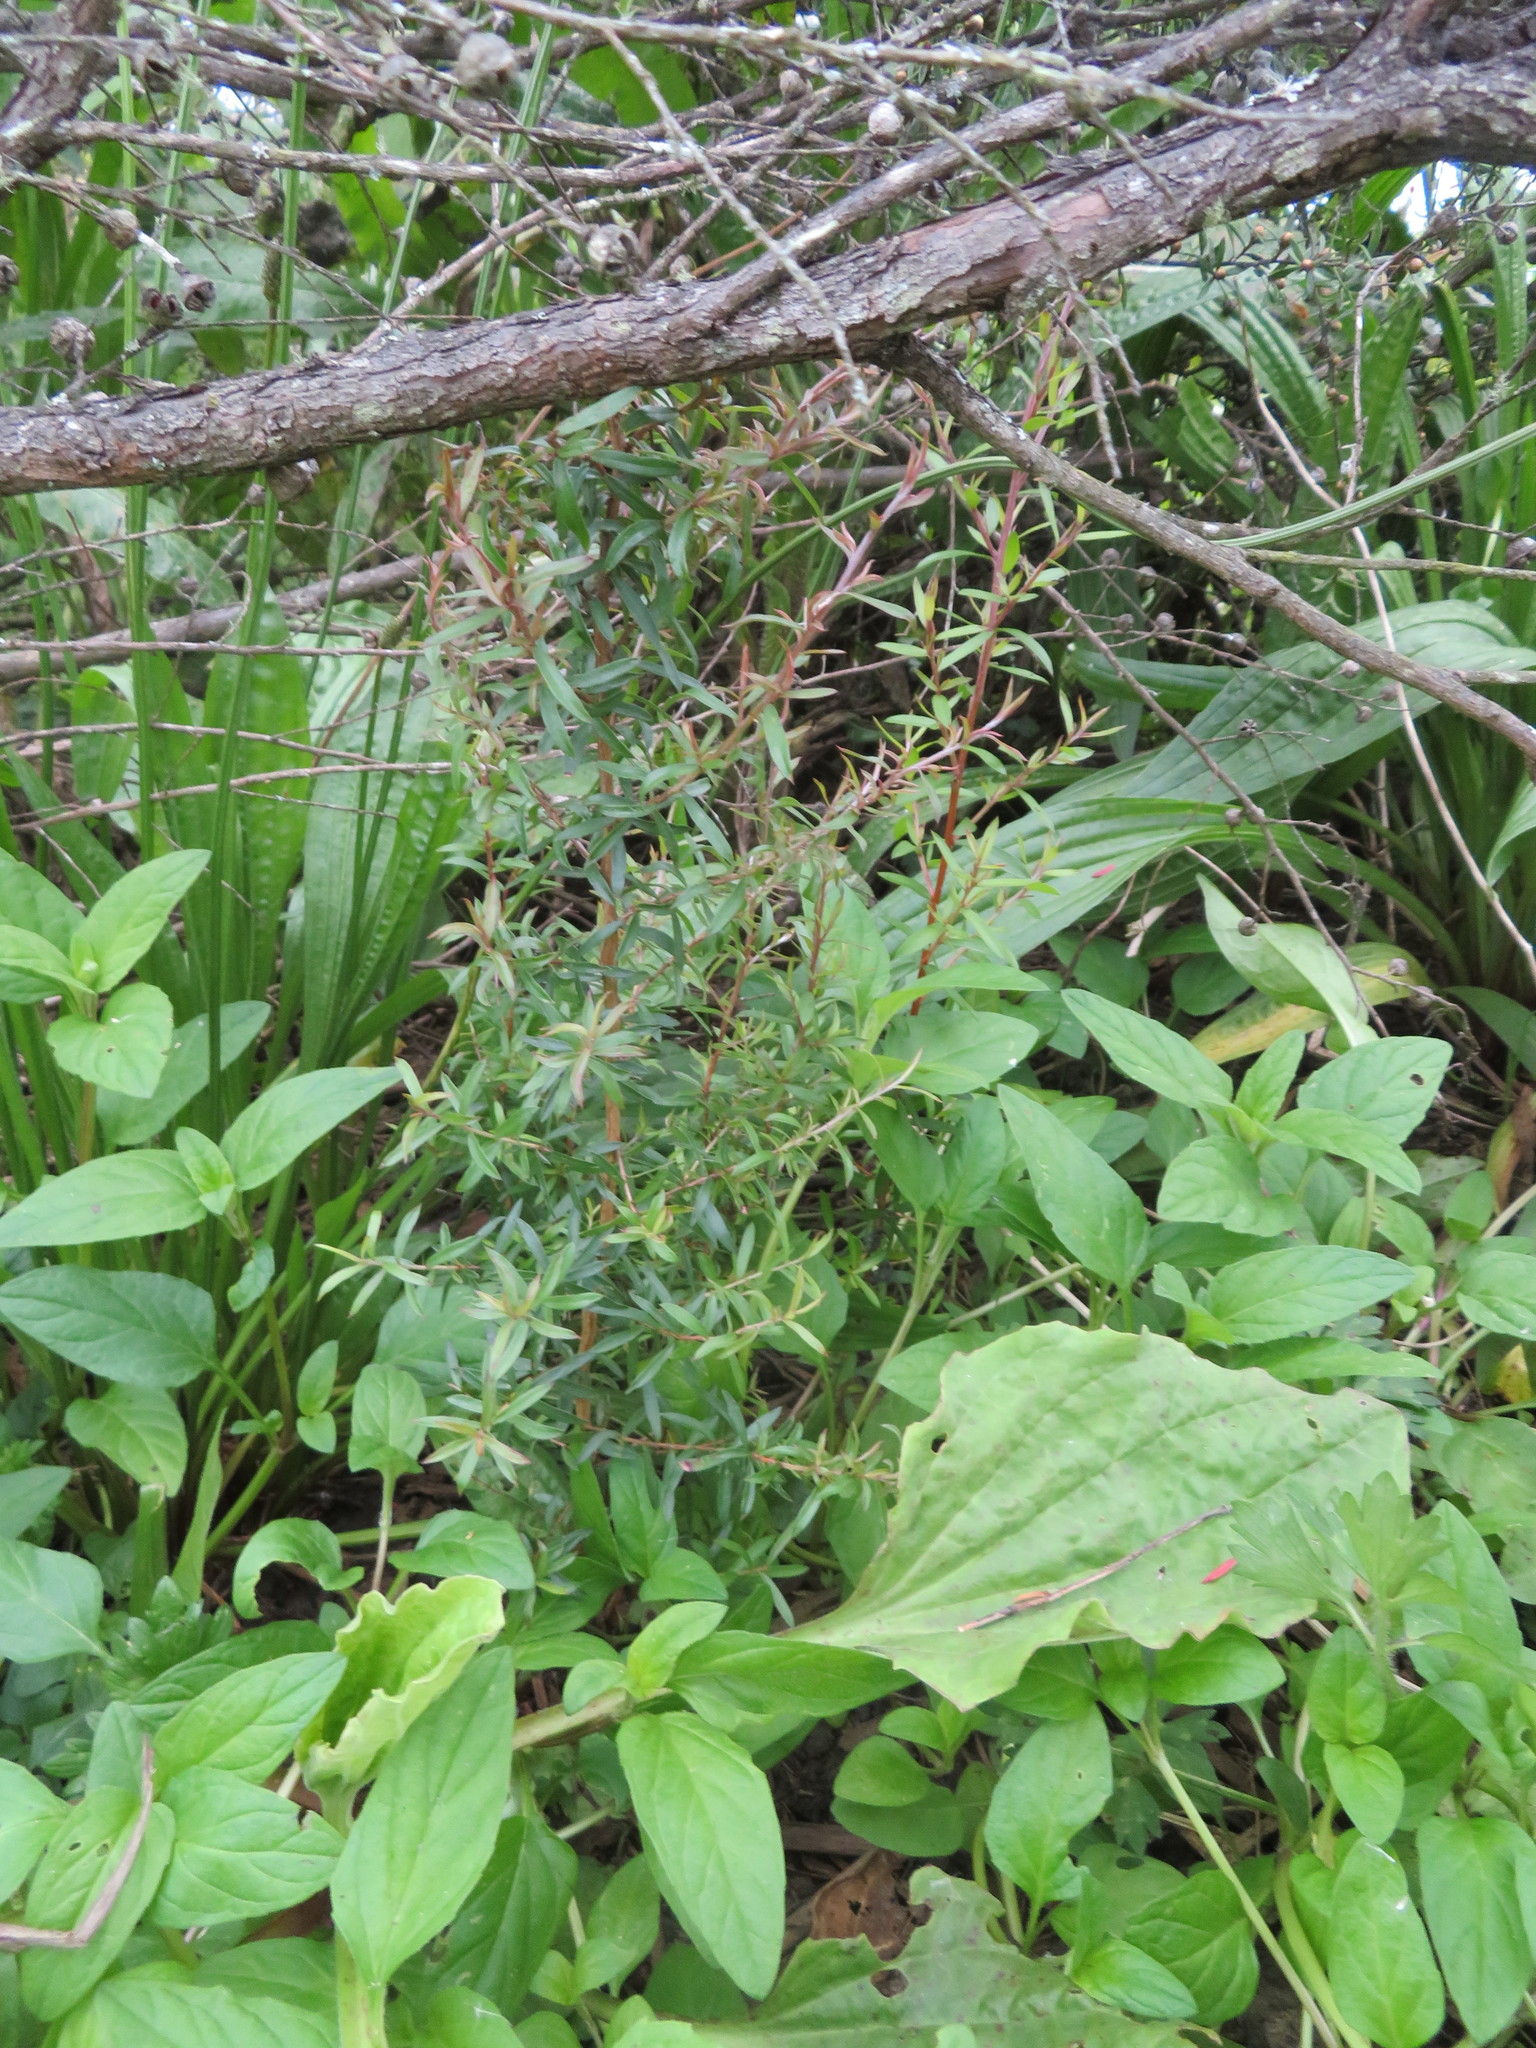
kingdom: Plantae
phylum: Tracheophyta
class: Magnoliopsida
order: Lamiales
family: Plantaginaceae
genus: Plantago
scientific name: Plantago major
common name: Common plantain
